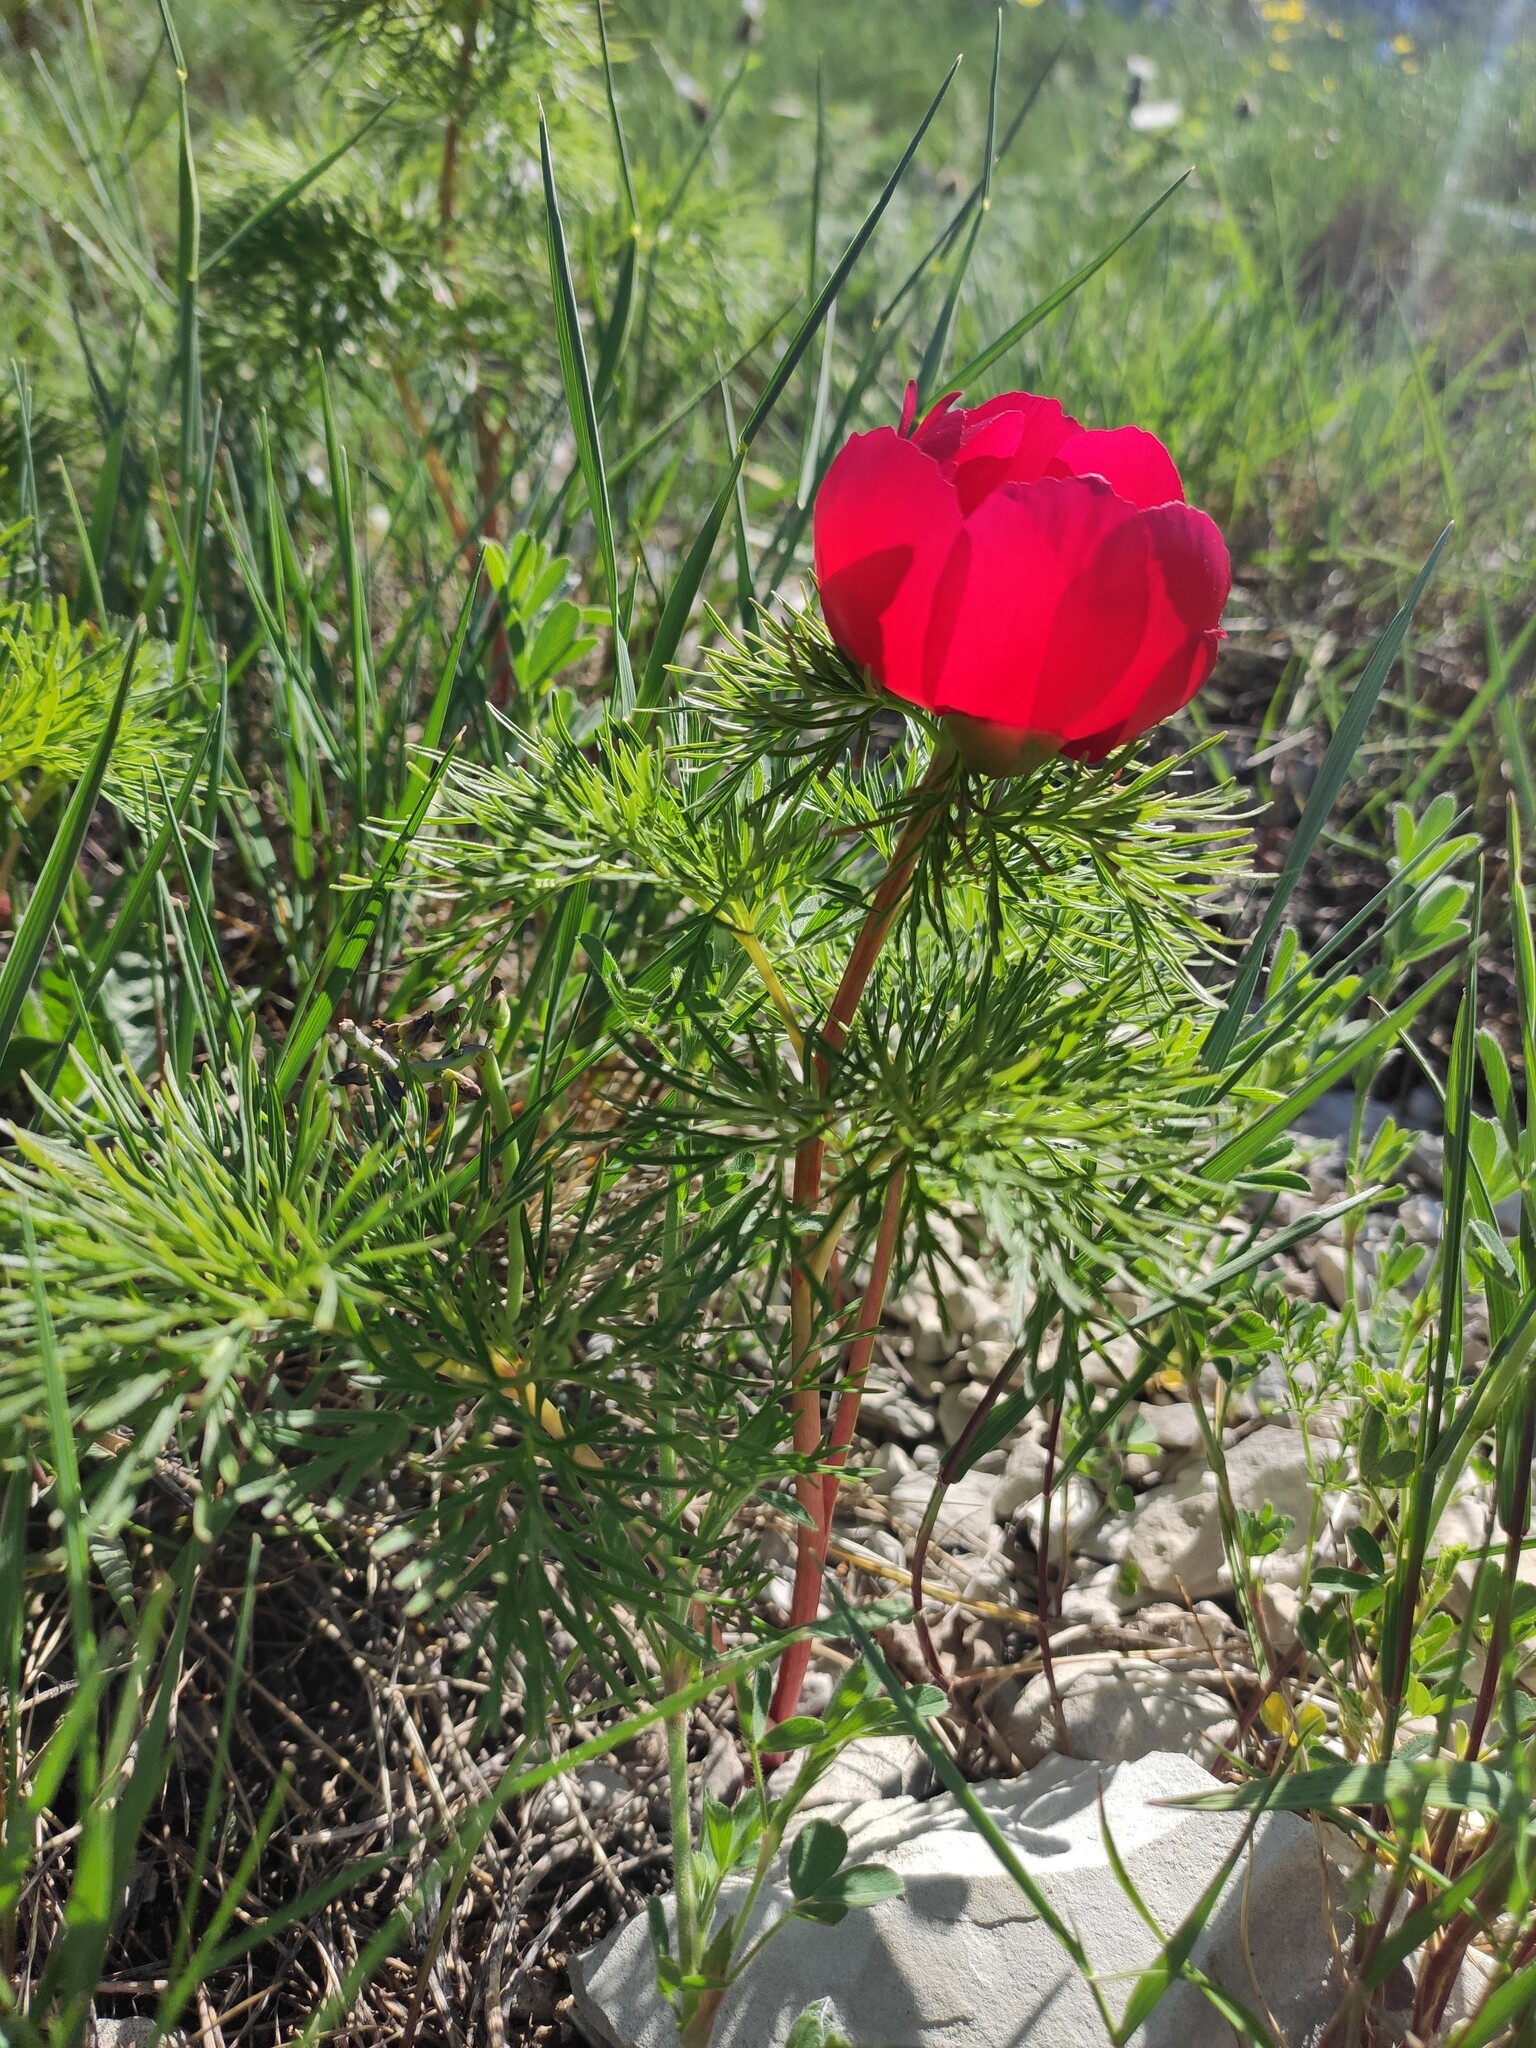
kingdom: Plantae
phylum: Tracheophyta
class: Magnoliopsida
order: Saxifragales
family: Paeoniaceae
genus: Paeonia
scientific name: Paeonia tenuifolia
